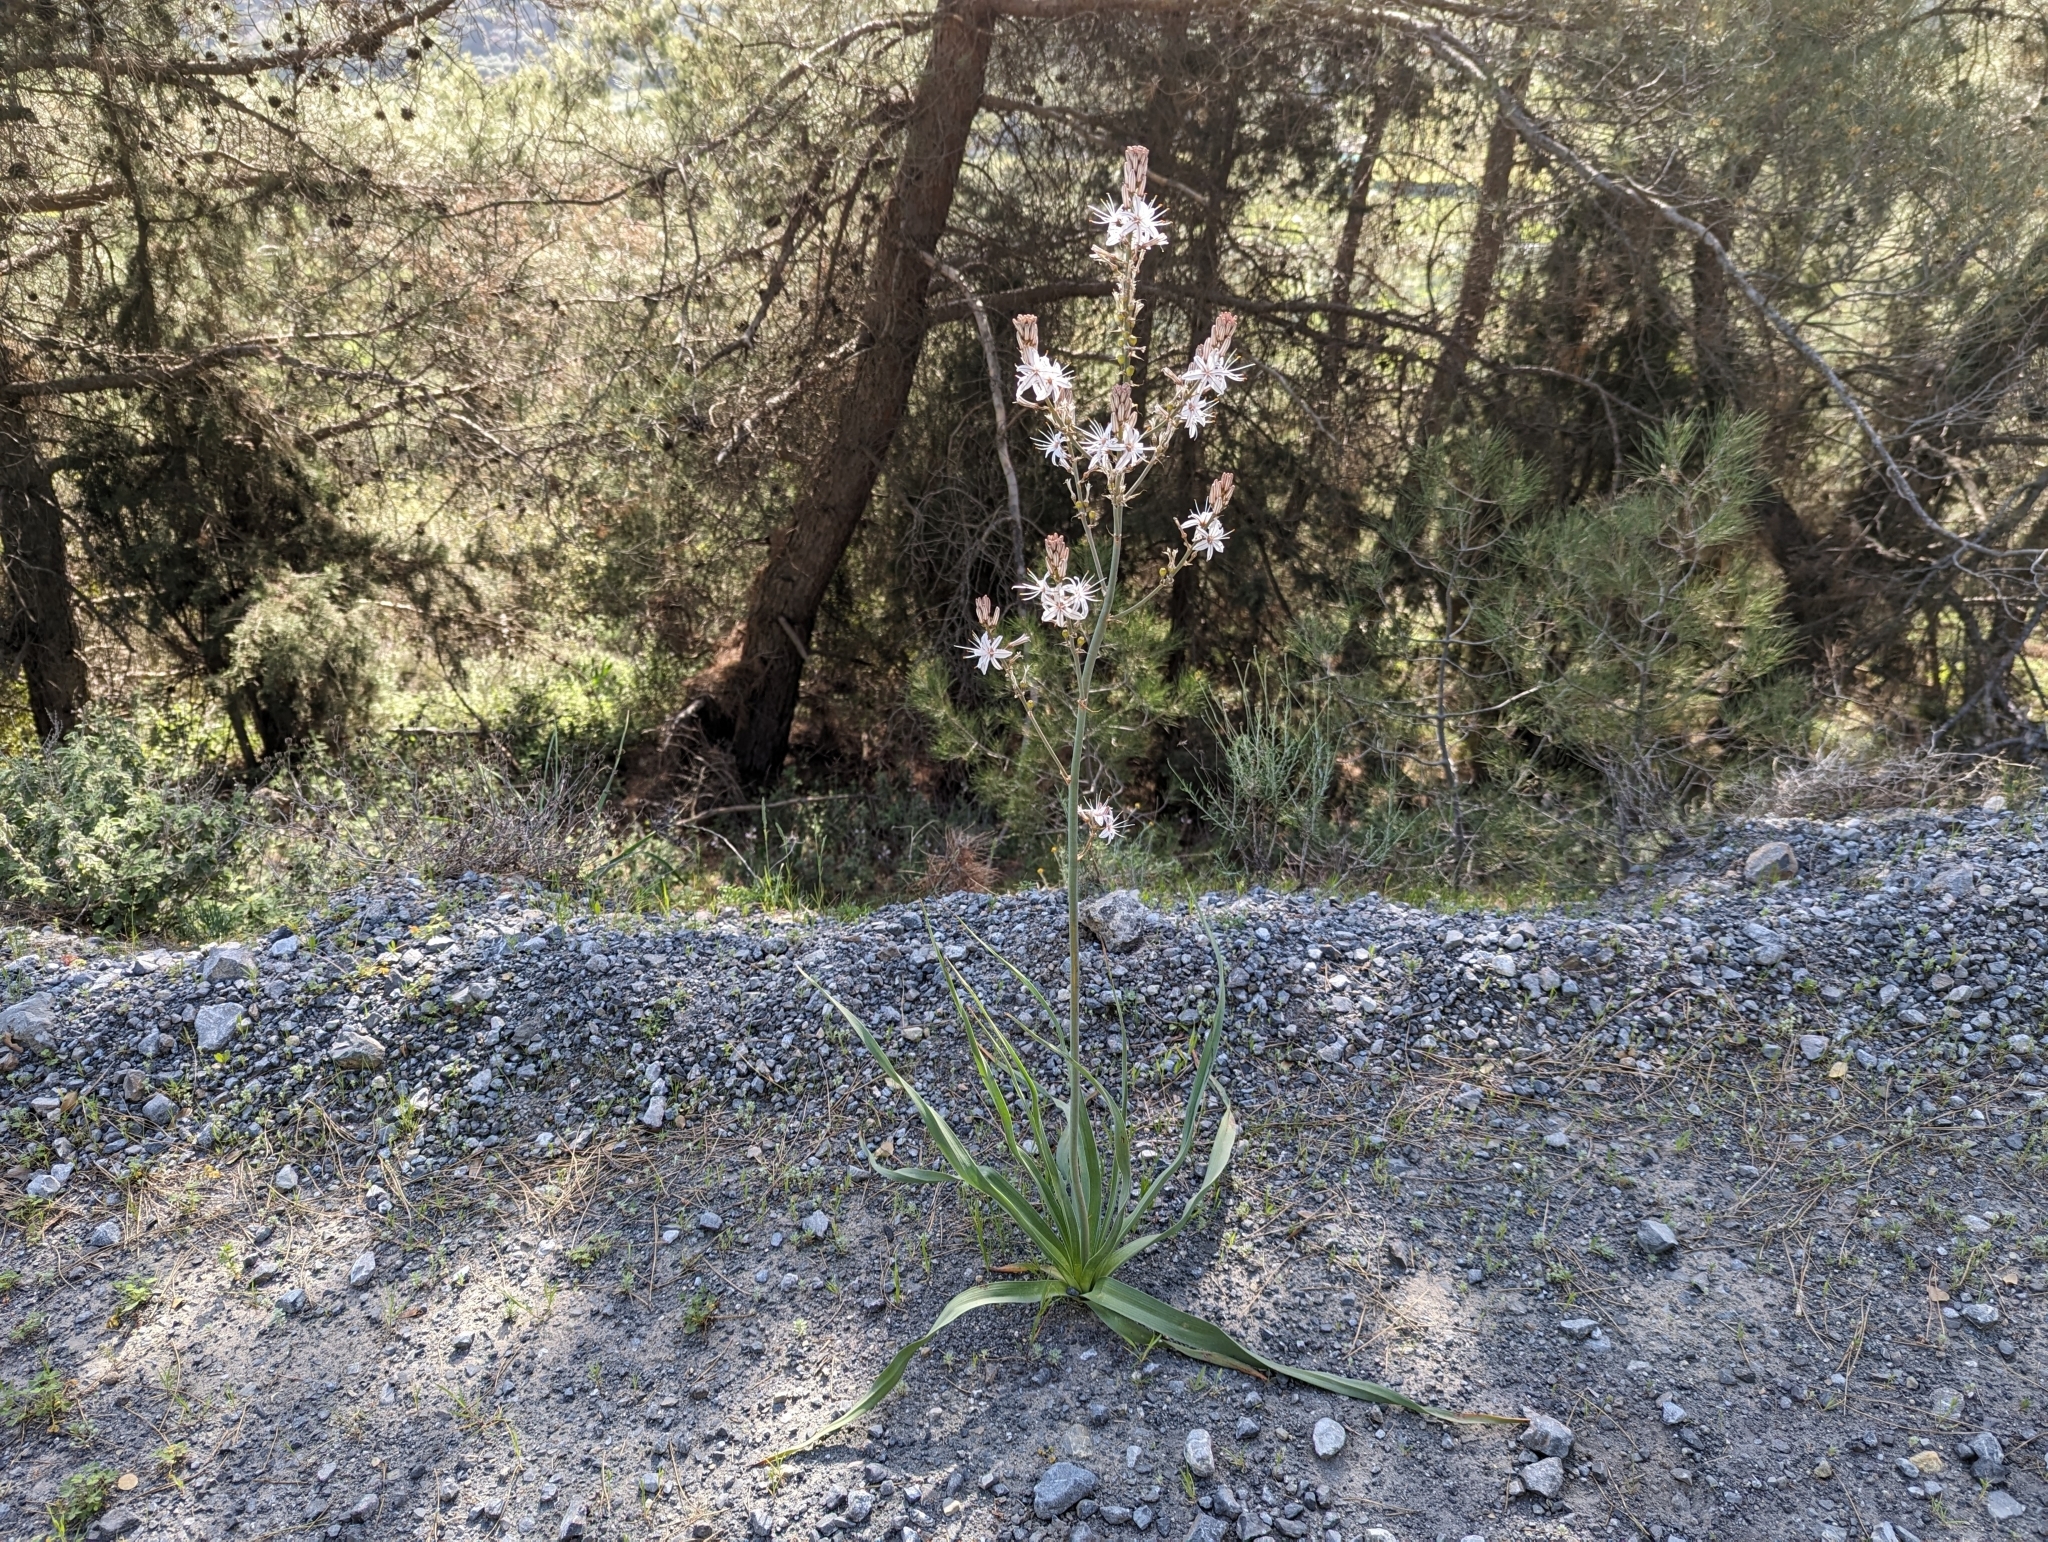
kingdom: Plantae
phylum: Tracheophyta
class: Liliopsida
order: Asparagales
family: Asphodelaceae
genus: Asphodelus
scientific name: Asphodelus ramosus
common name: Silverrod
